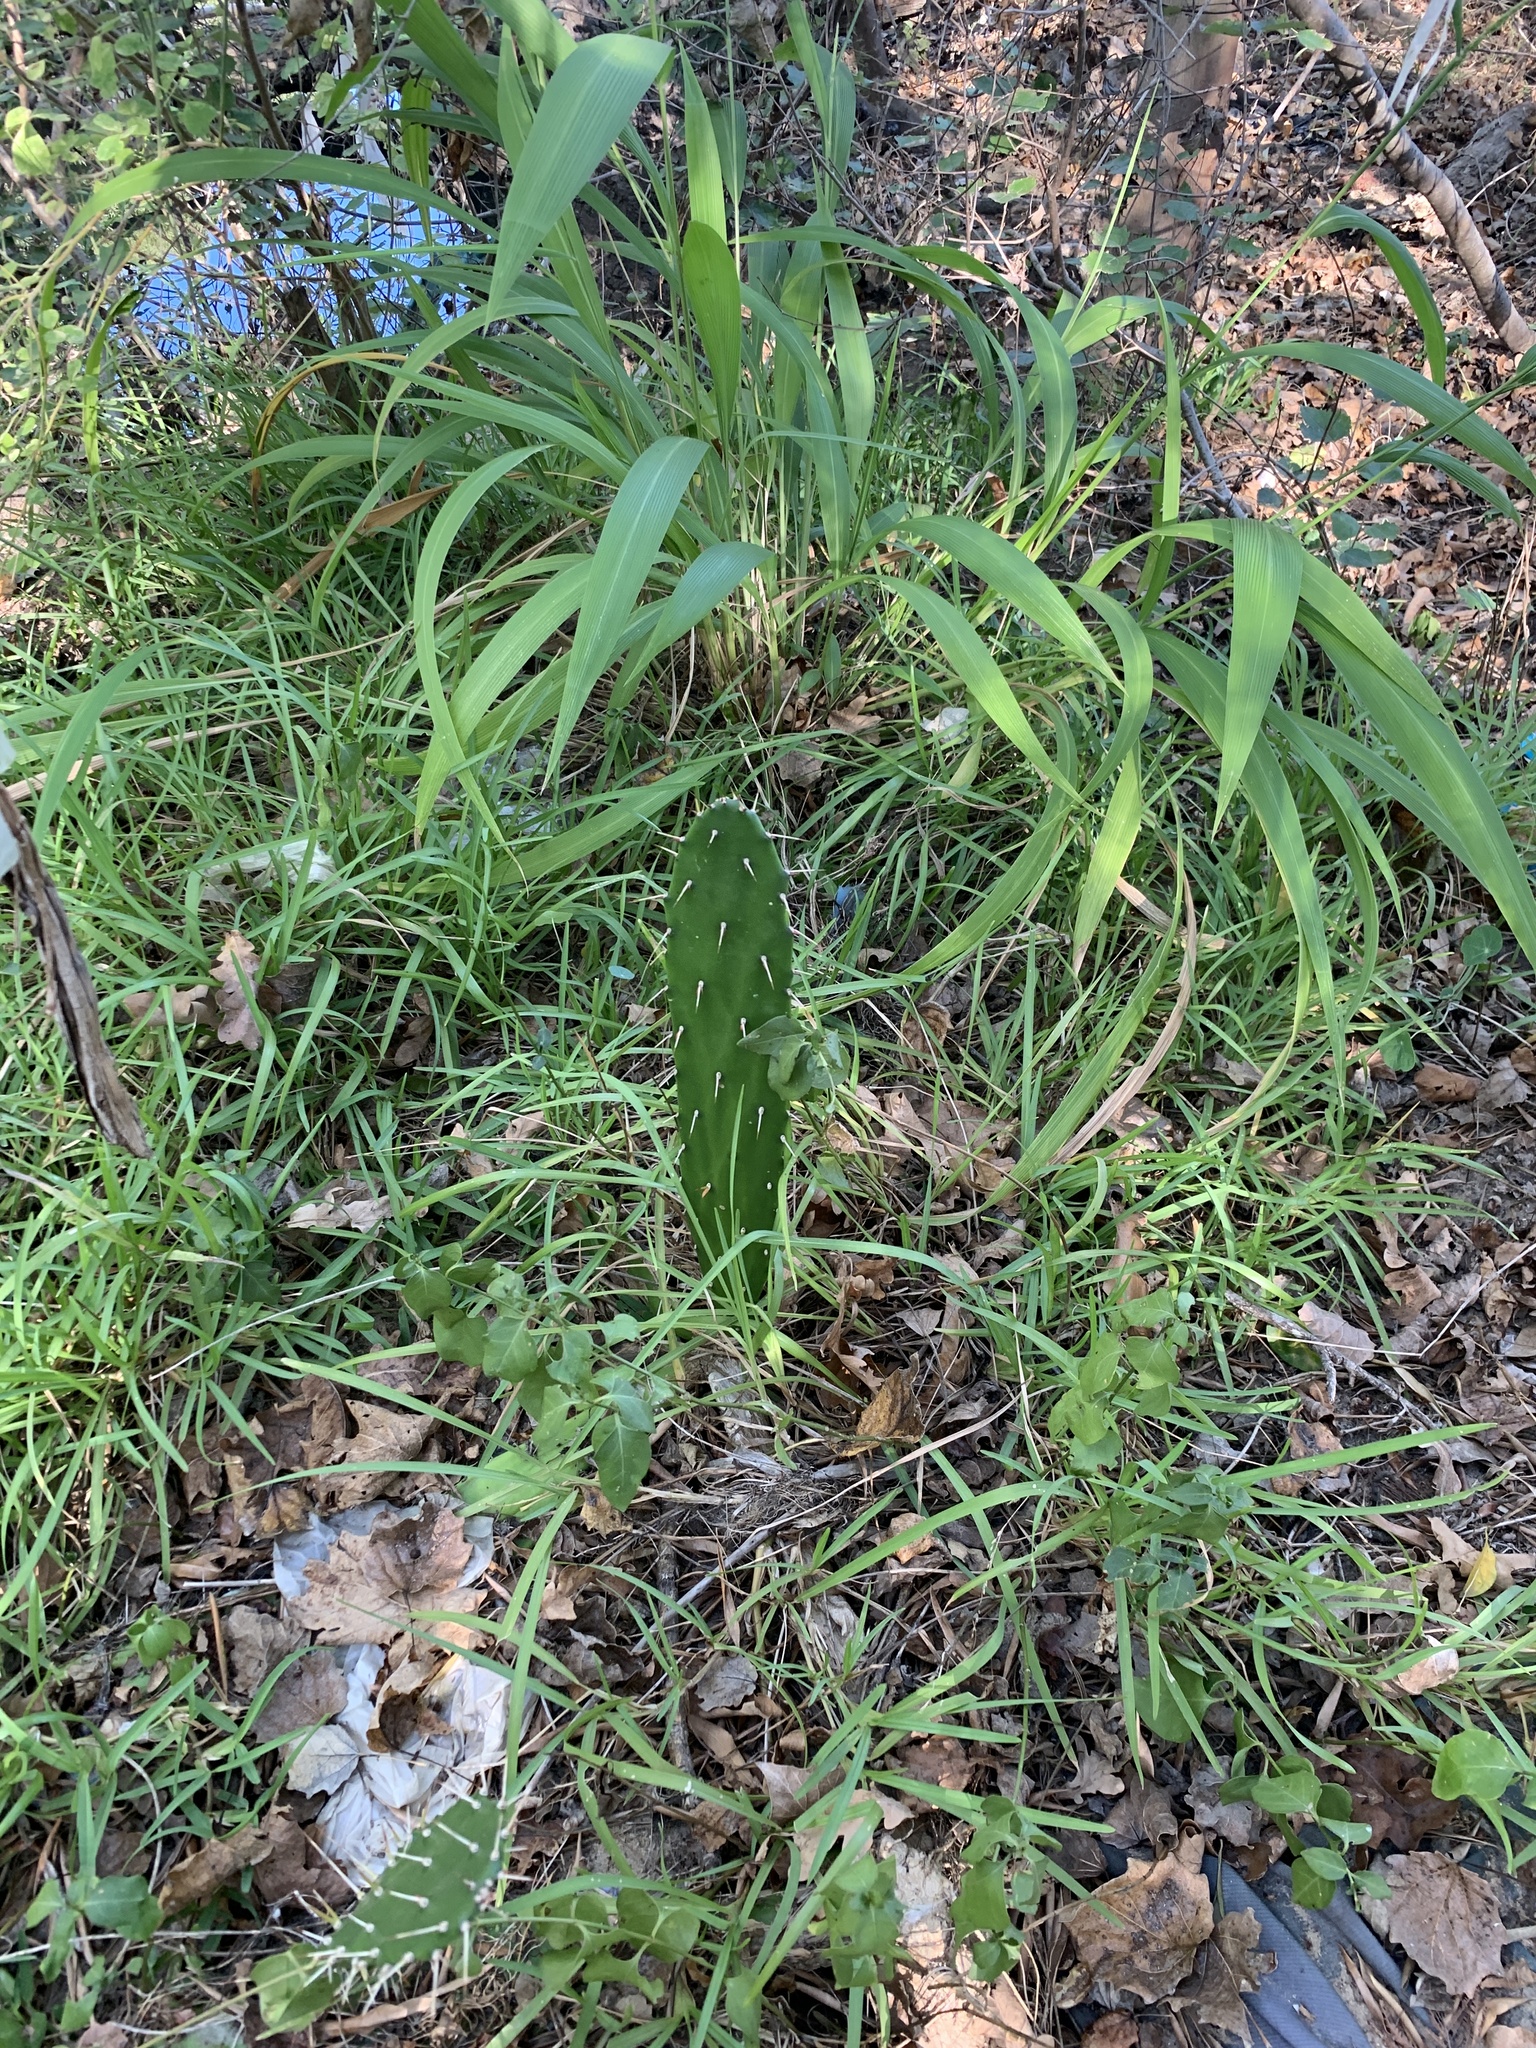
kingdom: Plantae
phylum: Tracheophyta
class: Magnoliopsida
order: Caryophyllales
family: Cactaceae
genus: Opuntia
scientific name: Opuntia monacantha
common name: Common pricklypear
